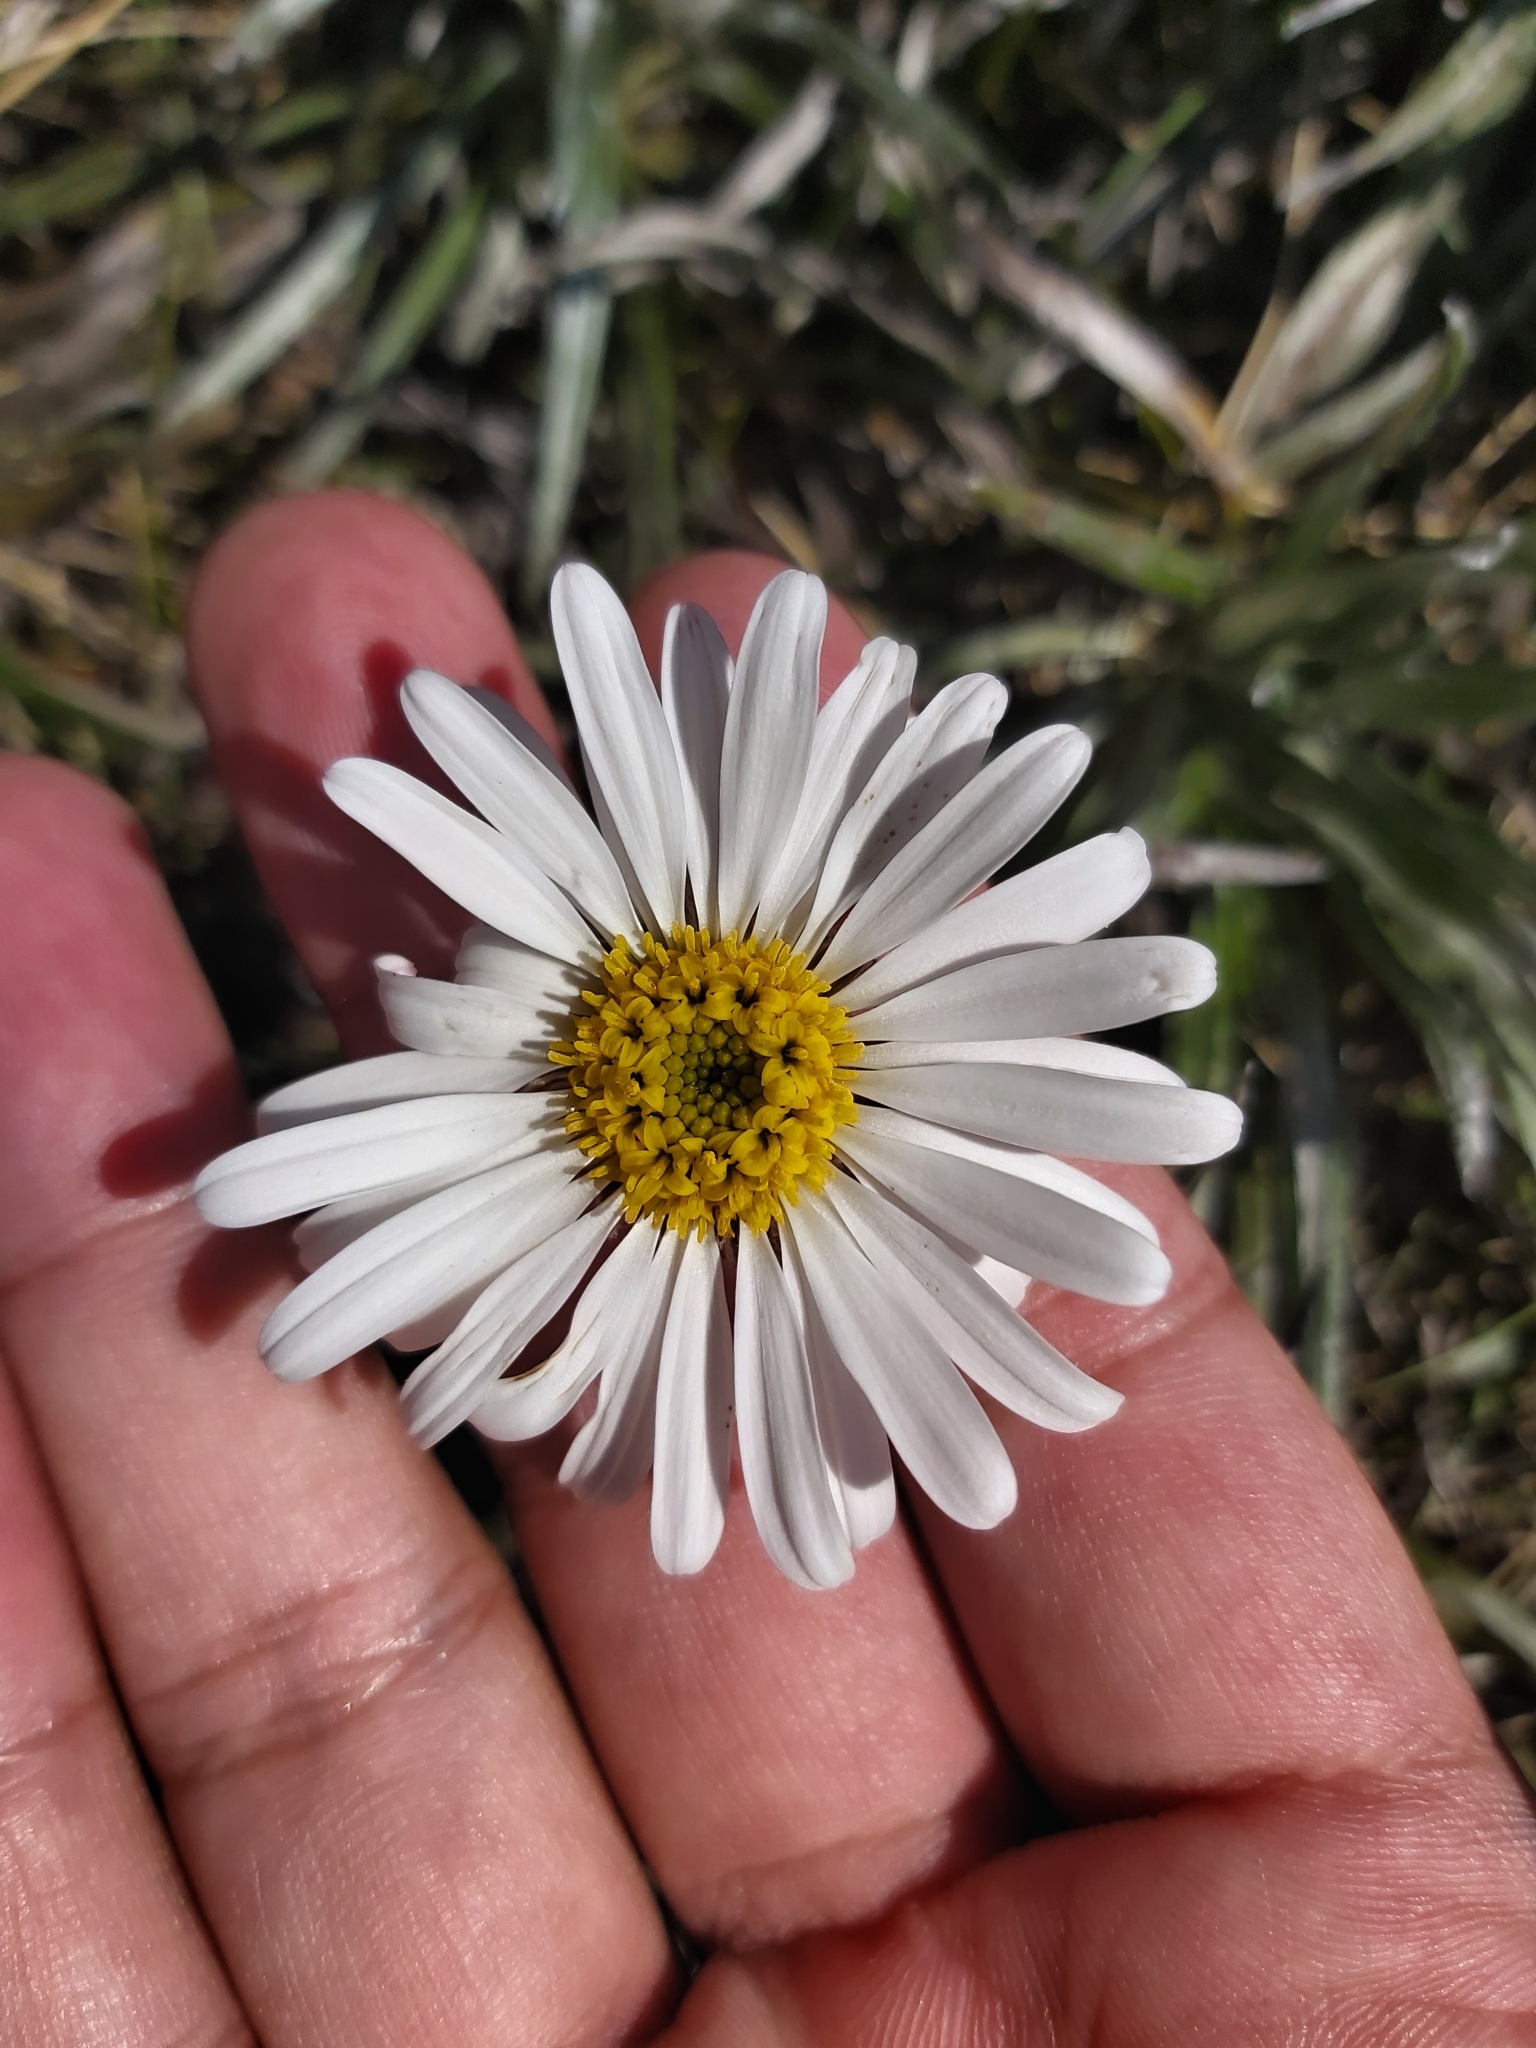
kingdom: Plantae
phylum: Tracheophyta
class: Magnoliopsida
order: Asterales
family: Asteraceae
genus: Celmisia
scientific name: Celmisia costiniana
